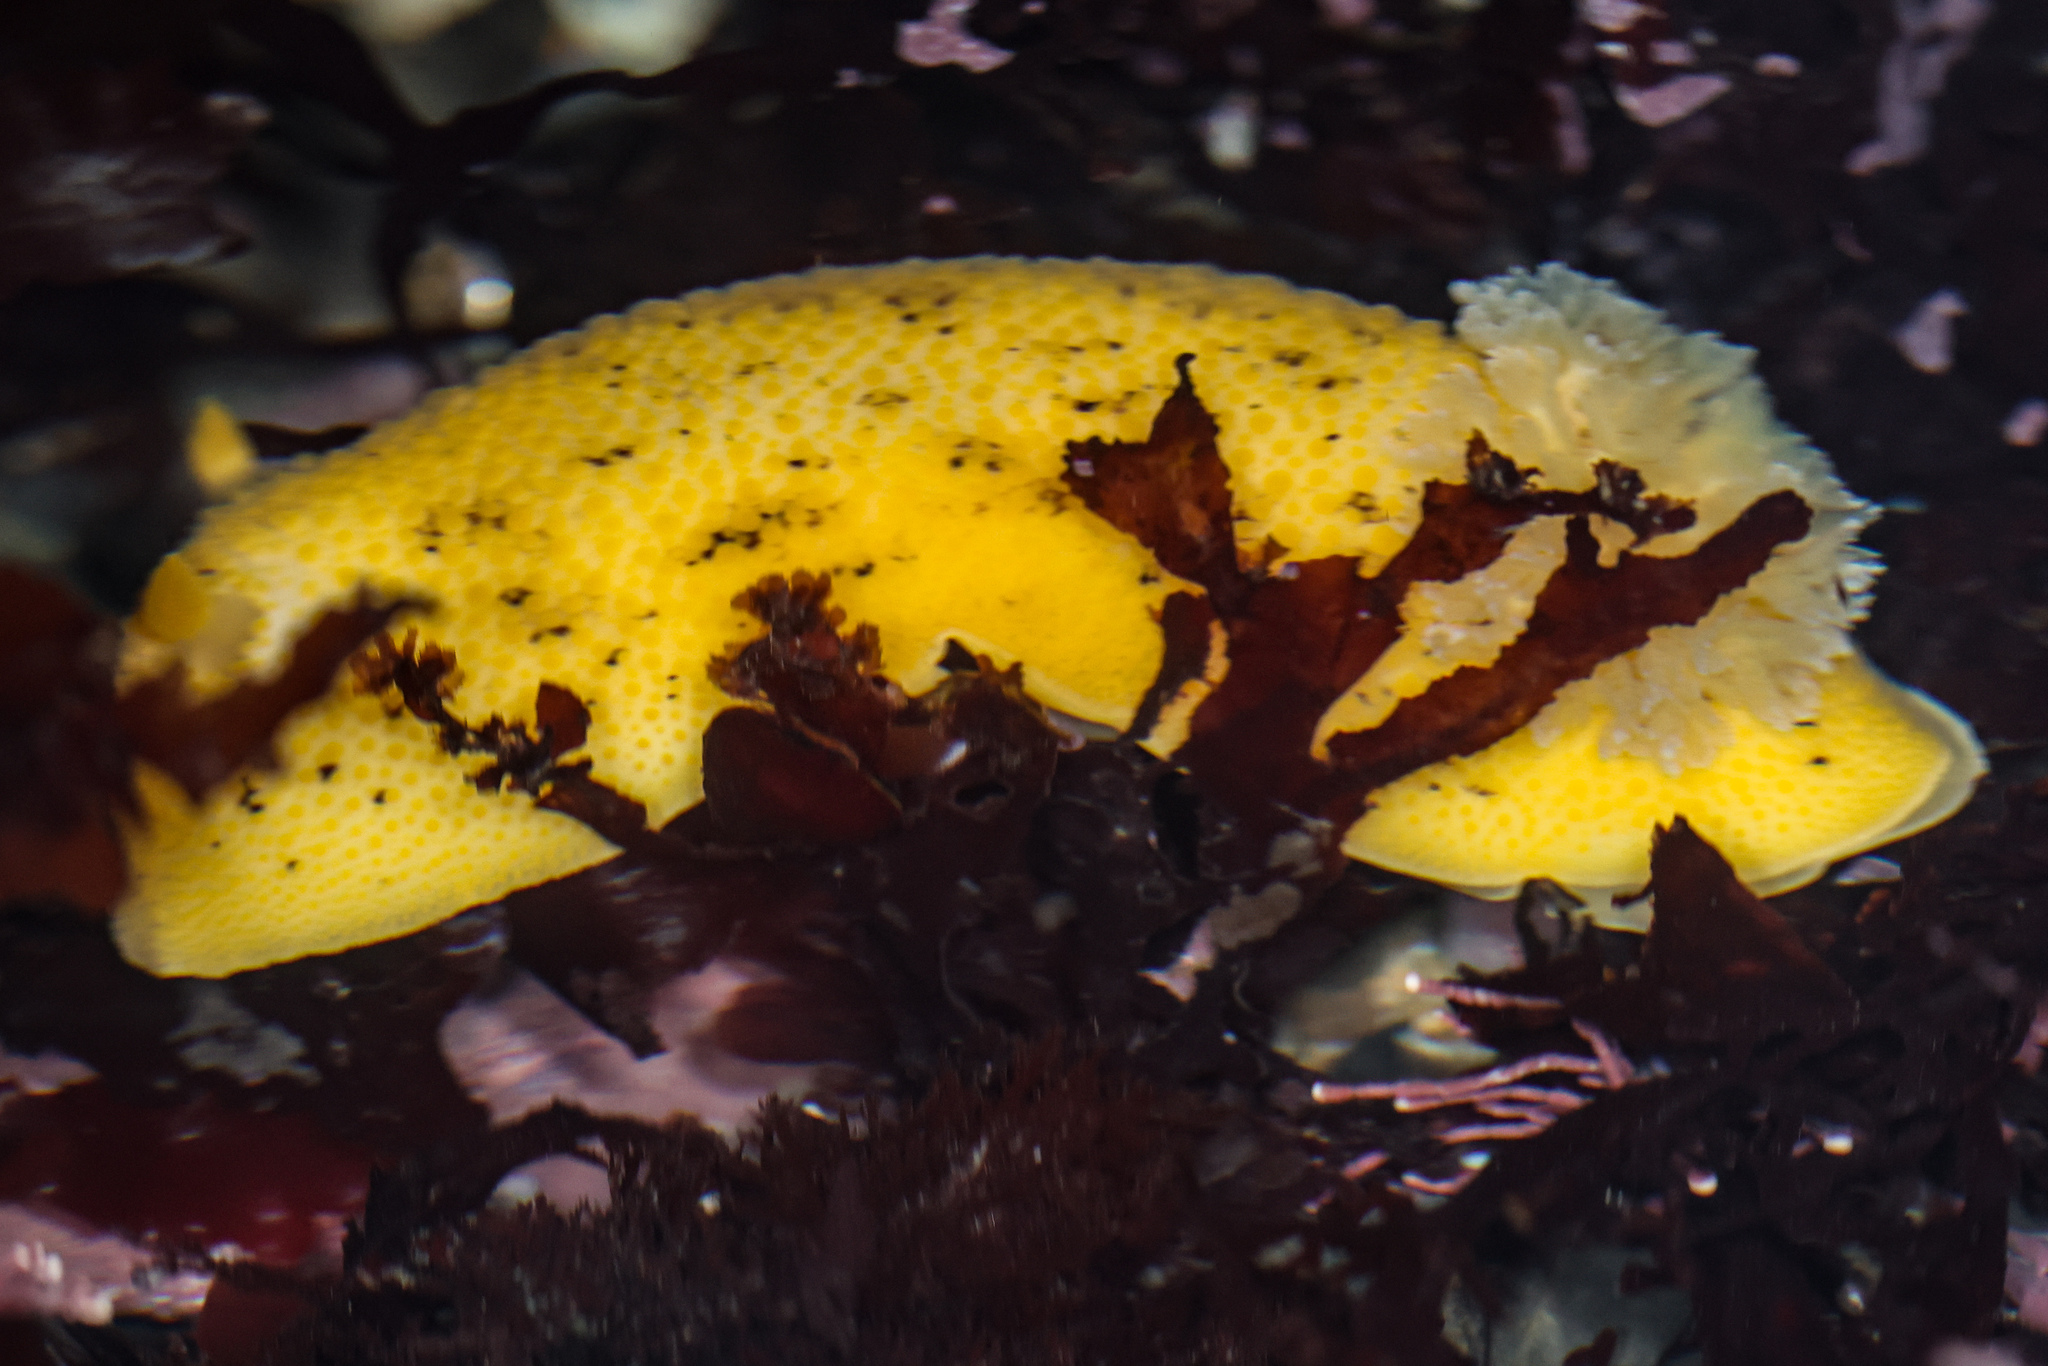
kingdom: Animalia
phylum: Mollusca
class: Gastropoda
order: Nudibranchia
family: Discodorididae
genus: Peltodoris
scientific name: Peltodoris nobilis
